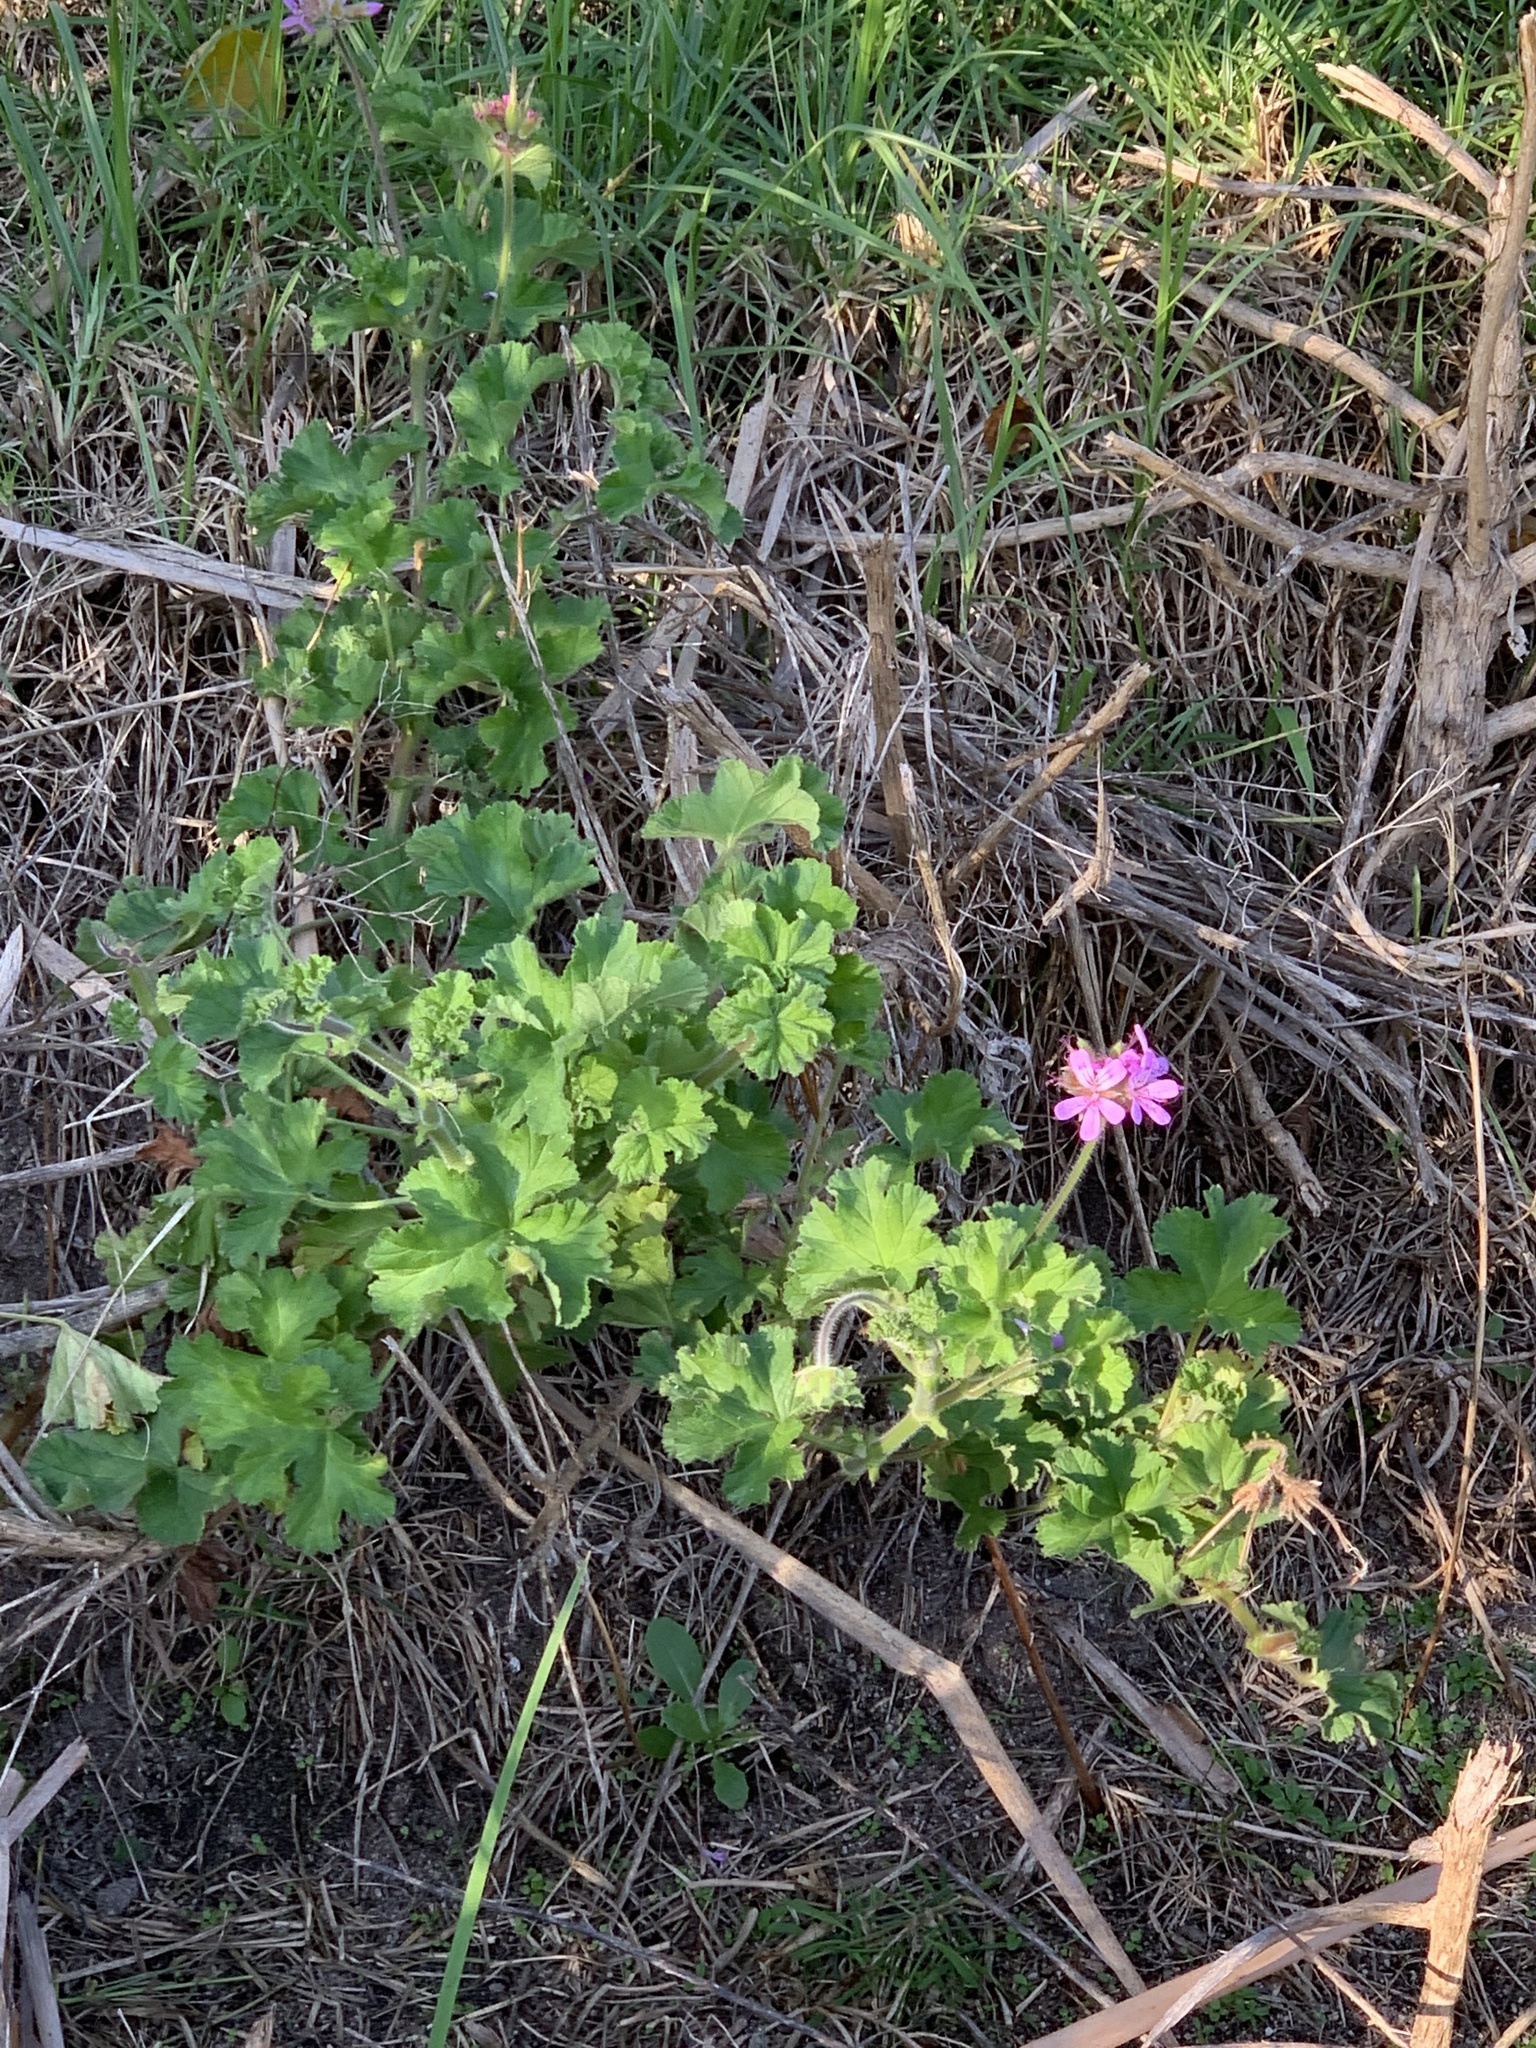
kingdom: Plantae
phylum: Tracheophyta
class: Magnoliopsida
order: Geraniales
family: Geraniaceae
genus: Pelargonium
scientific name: Pelargonium capitatum
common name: Rose scented geranium
